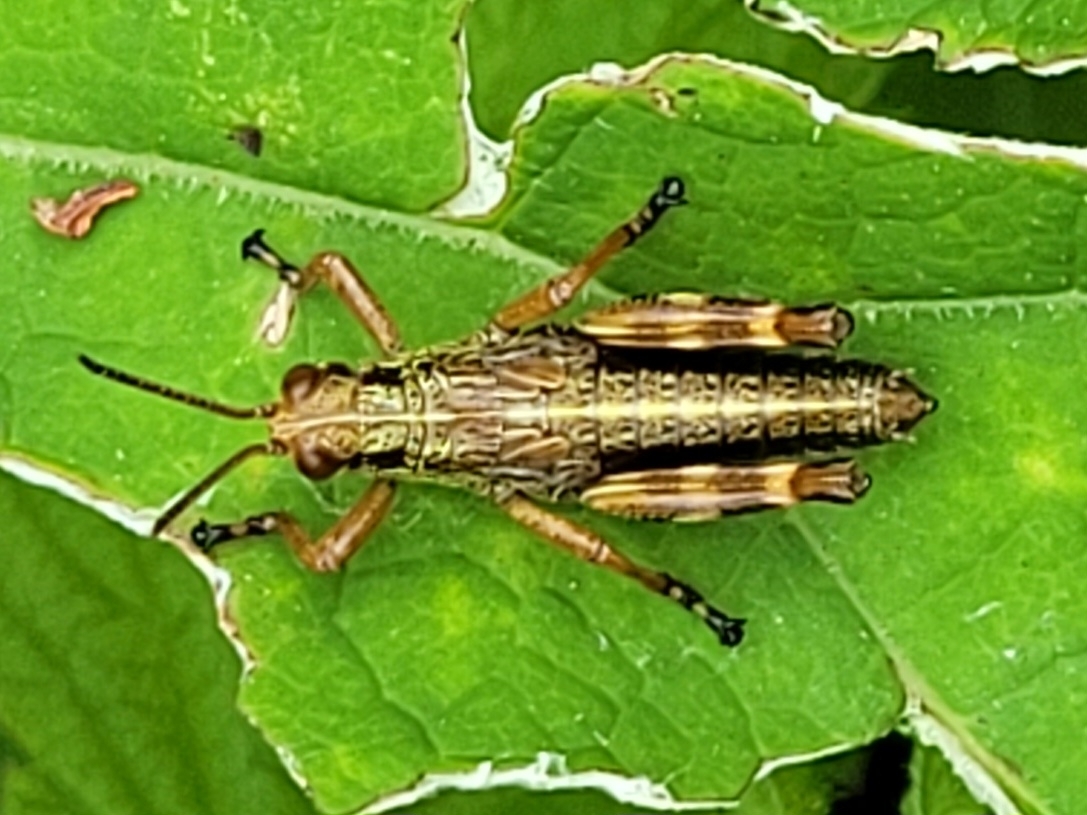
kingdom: Animalia
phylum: Arthropoda
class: Insecta
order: Orthoptera
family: Acrididae
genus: Miramella
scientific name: Miramella irena
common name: Long-winged mountain grasshopper
